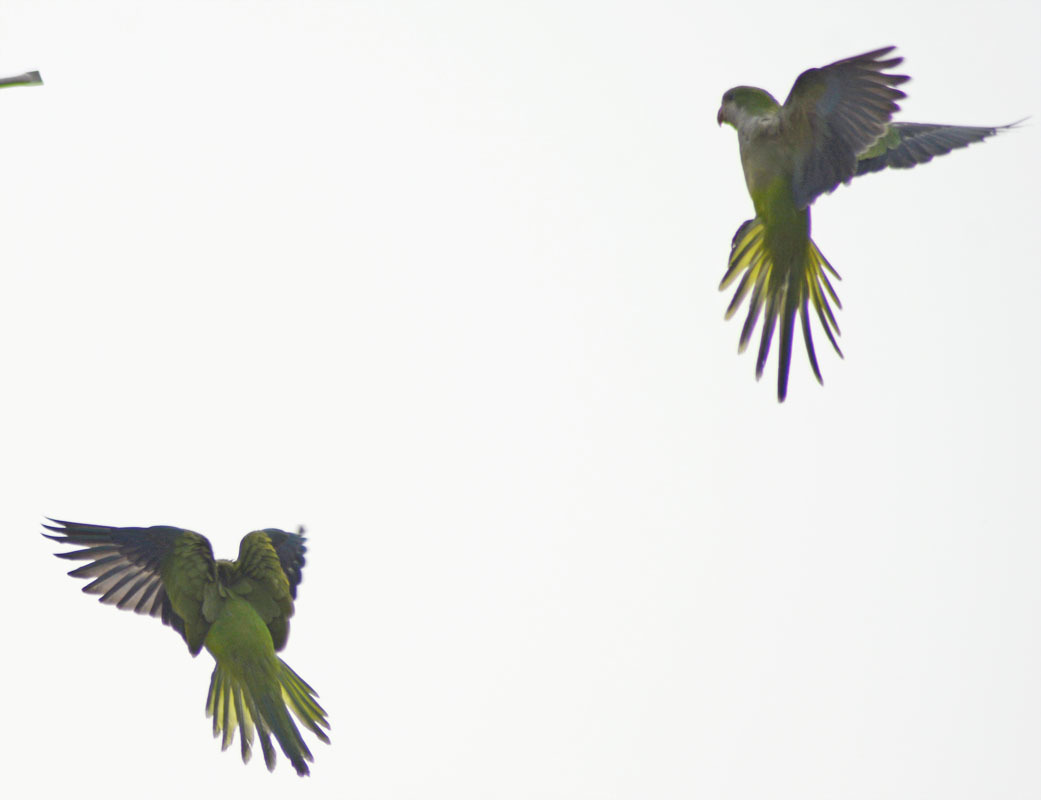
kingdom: Animalia
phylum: Chordata
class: Aves
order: Psittaciformes
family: Psittacidae
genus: Myiopsitta
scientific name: Myiopsitta monachus
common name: Monk parakeet
